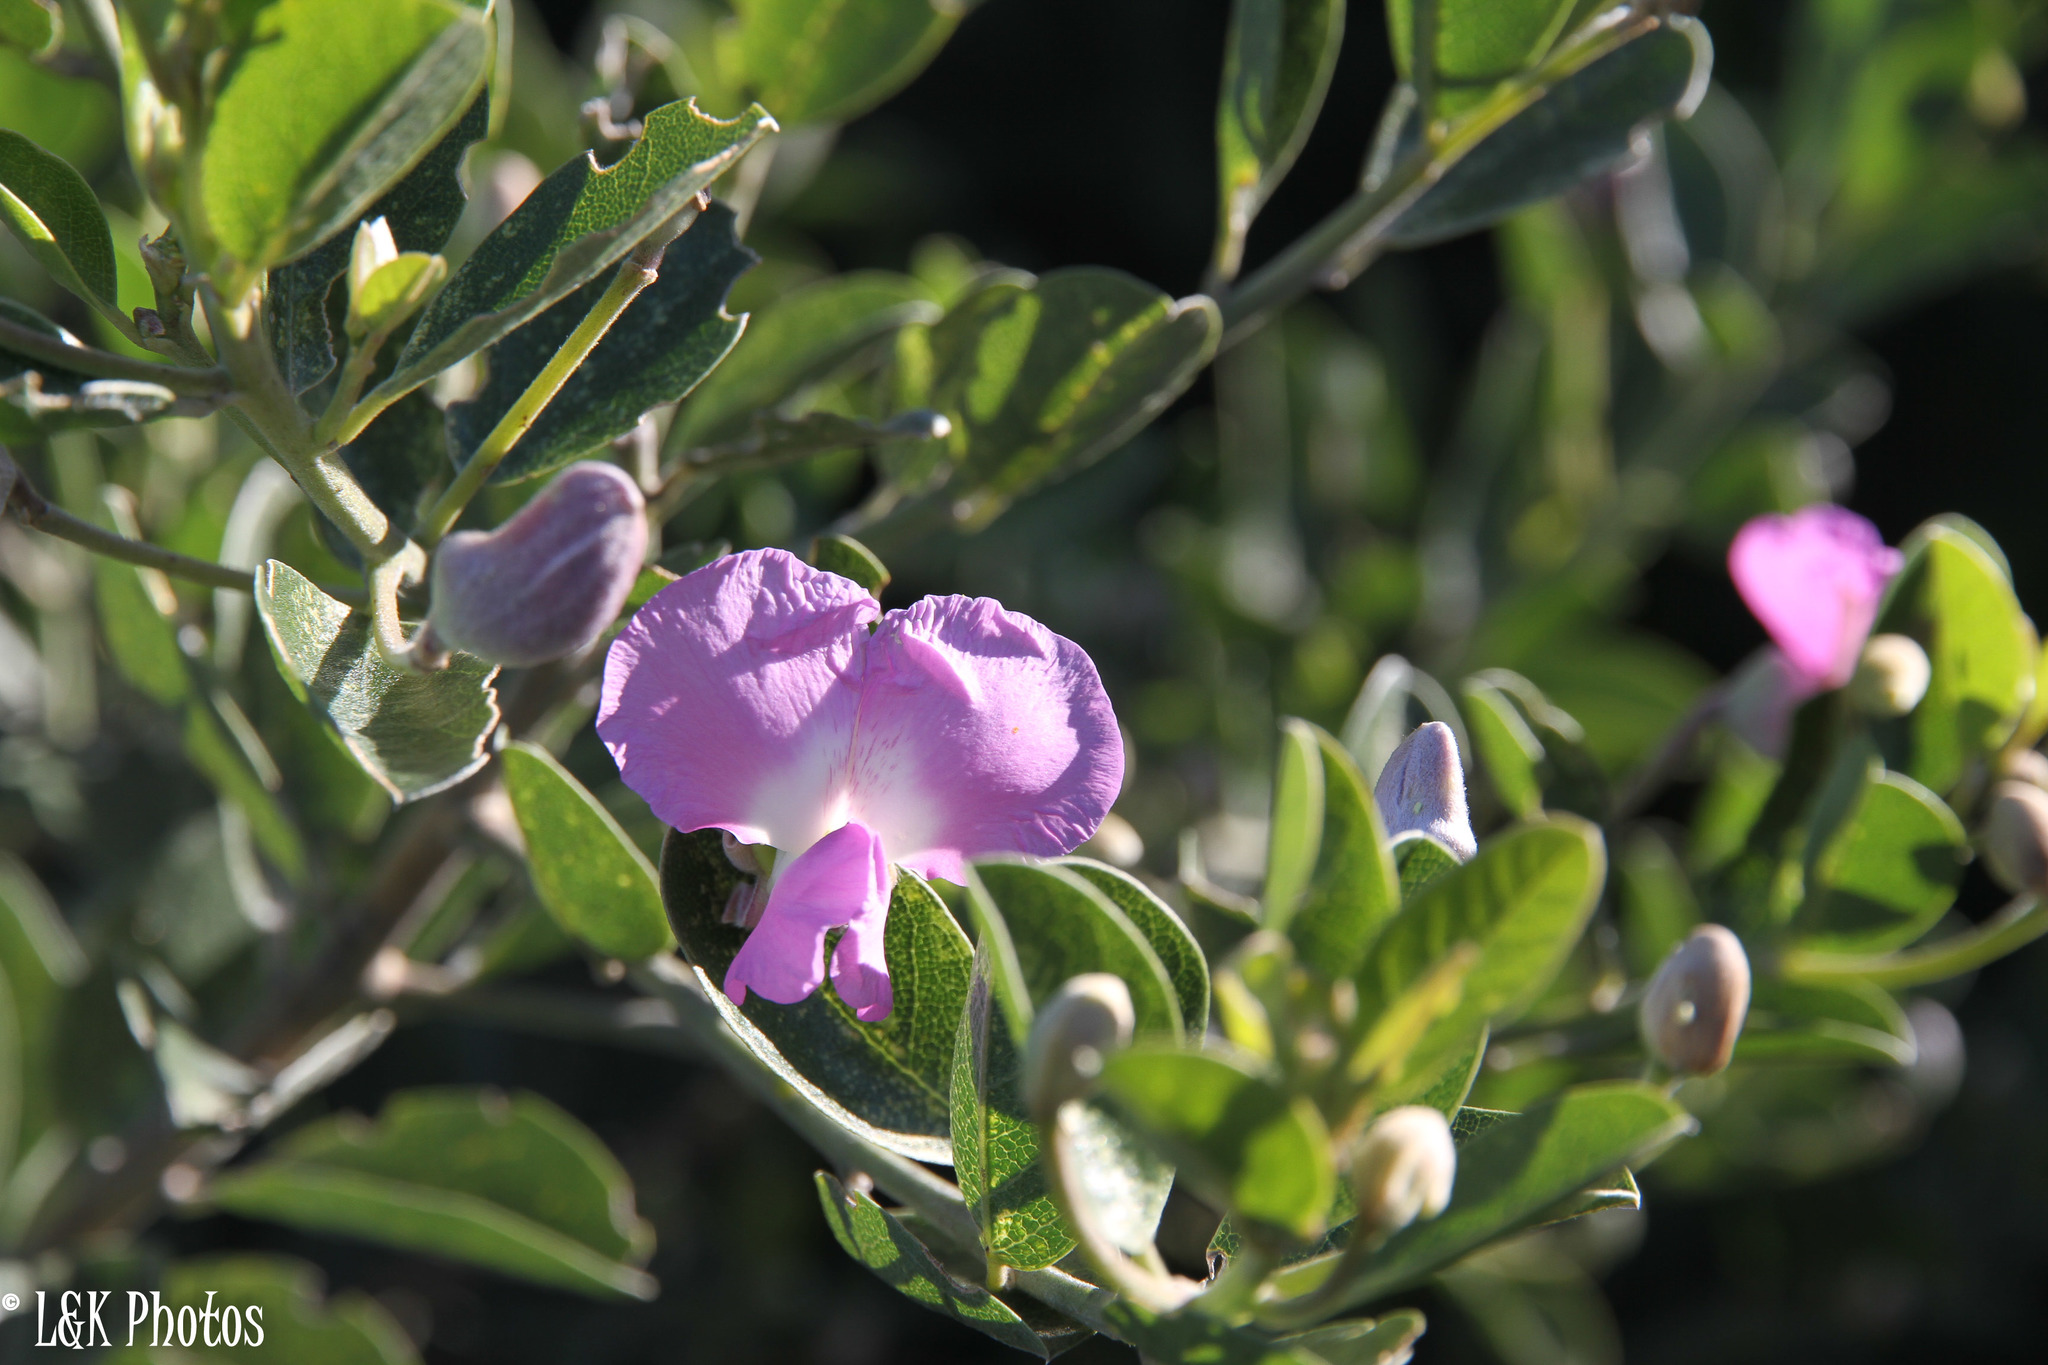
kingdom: Plantae
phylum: Tracheophyta
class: Magnoliopsida
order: Fabales
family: Fabaceae
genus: Podalyria
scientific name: Podalyria calyptrata
